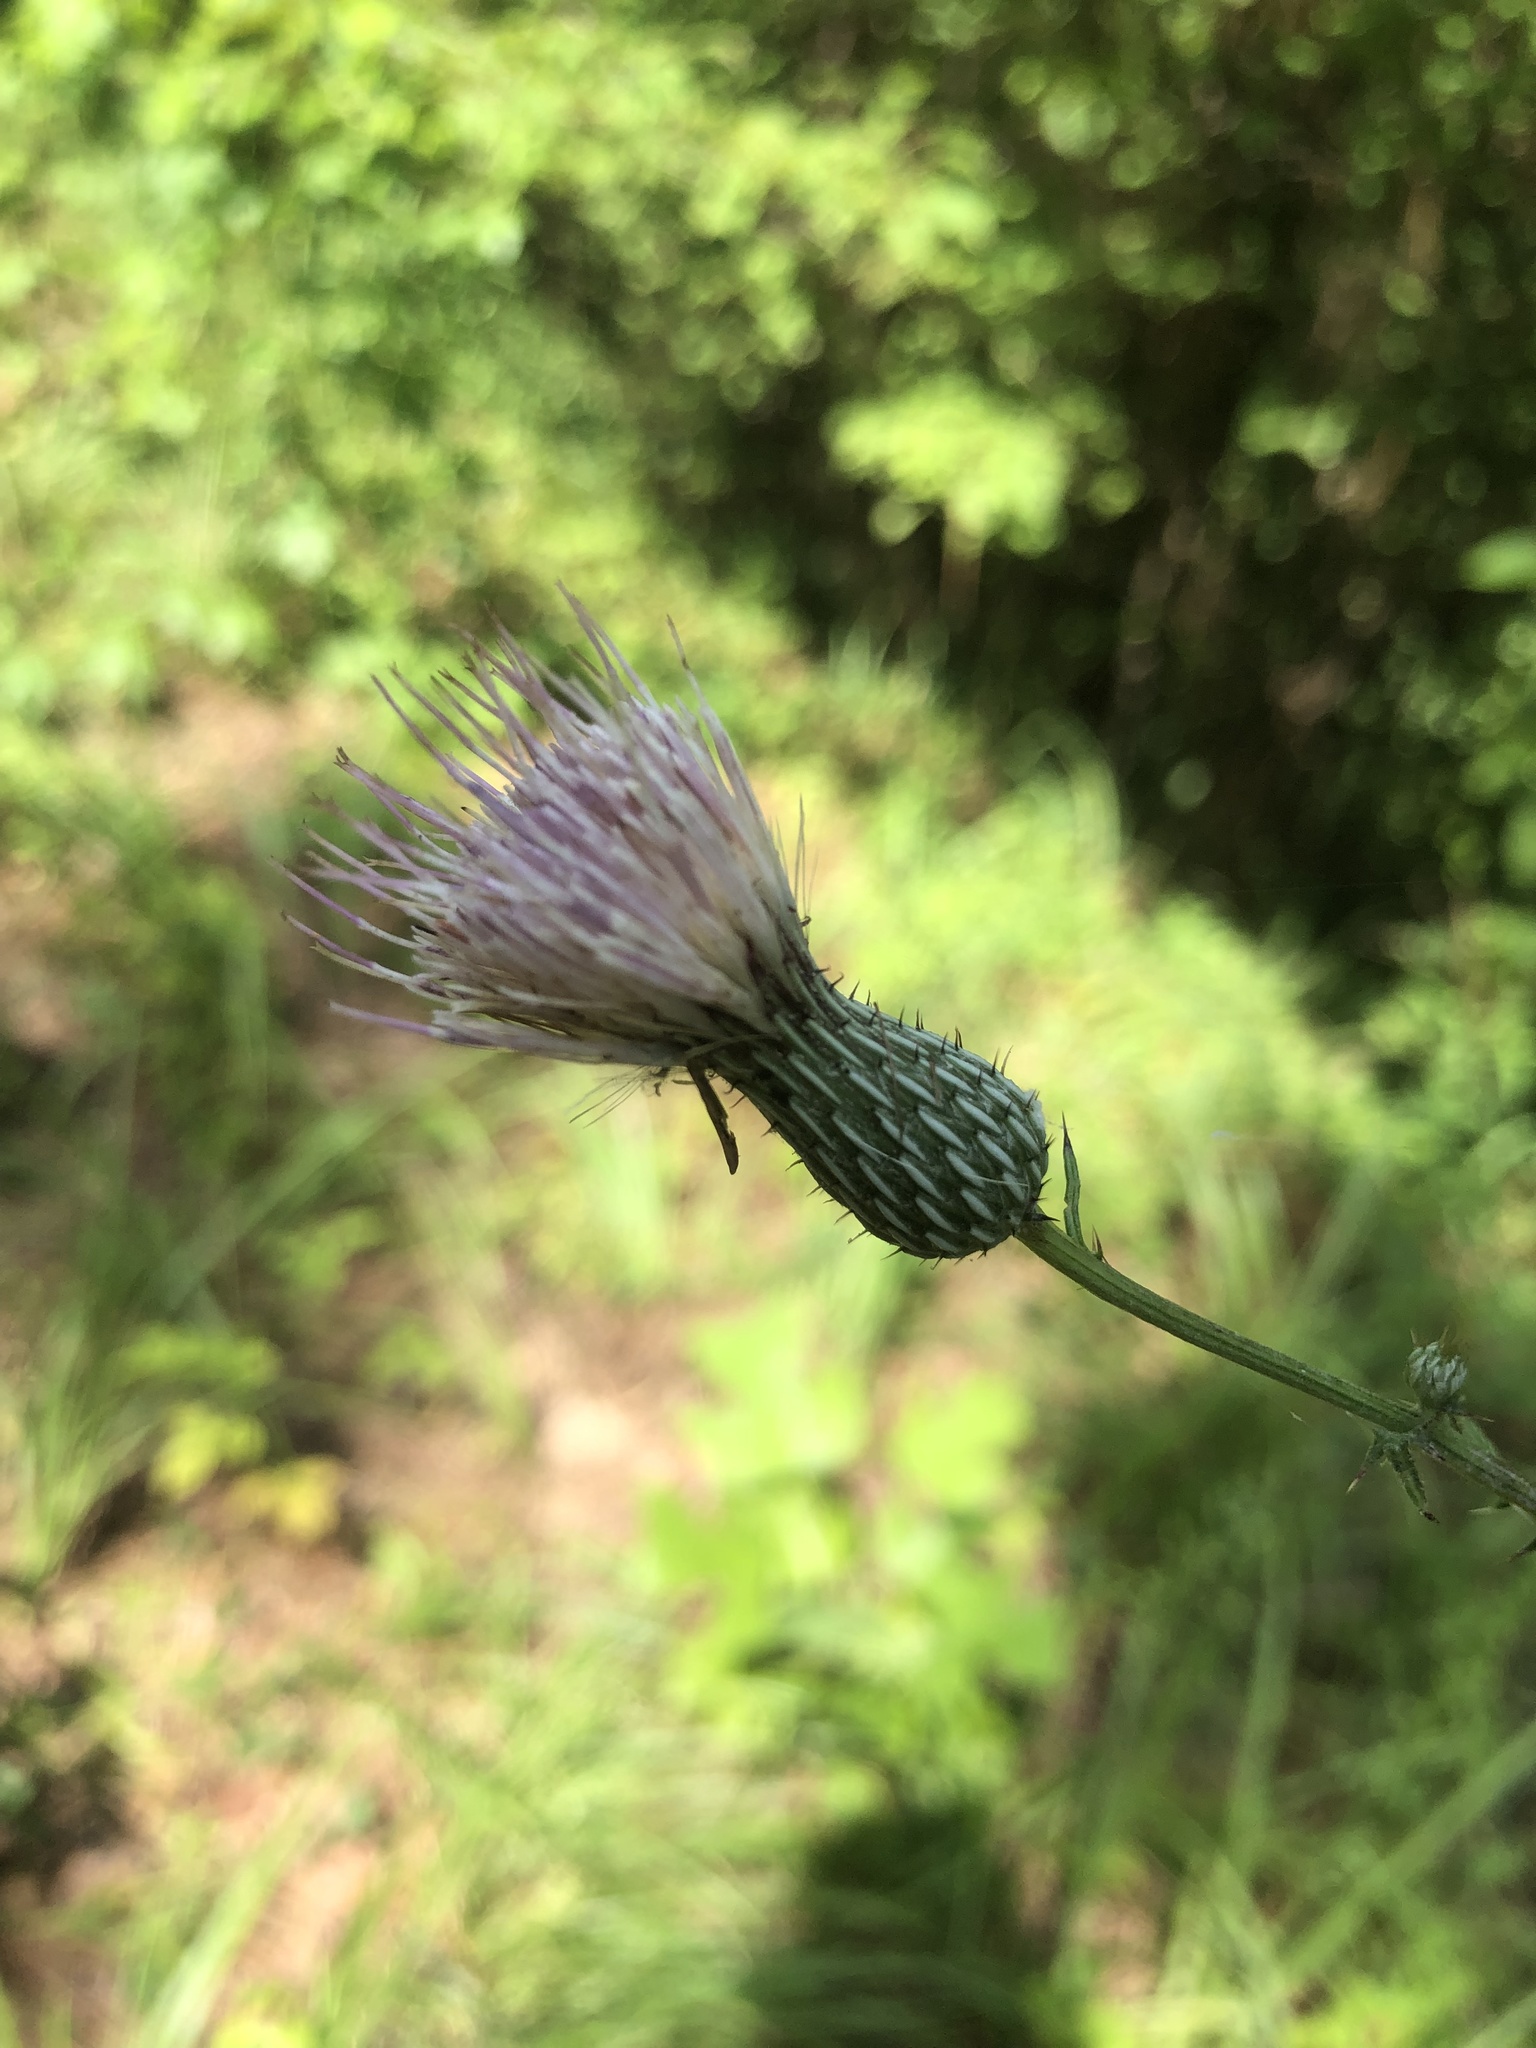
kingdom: Plantae
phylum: Tracheophyta
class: Magnoliopsida
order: Asterales
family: Asteraceae
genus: Cirsium
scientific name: Cirsium nuttalii
